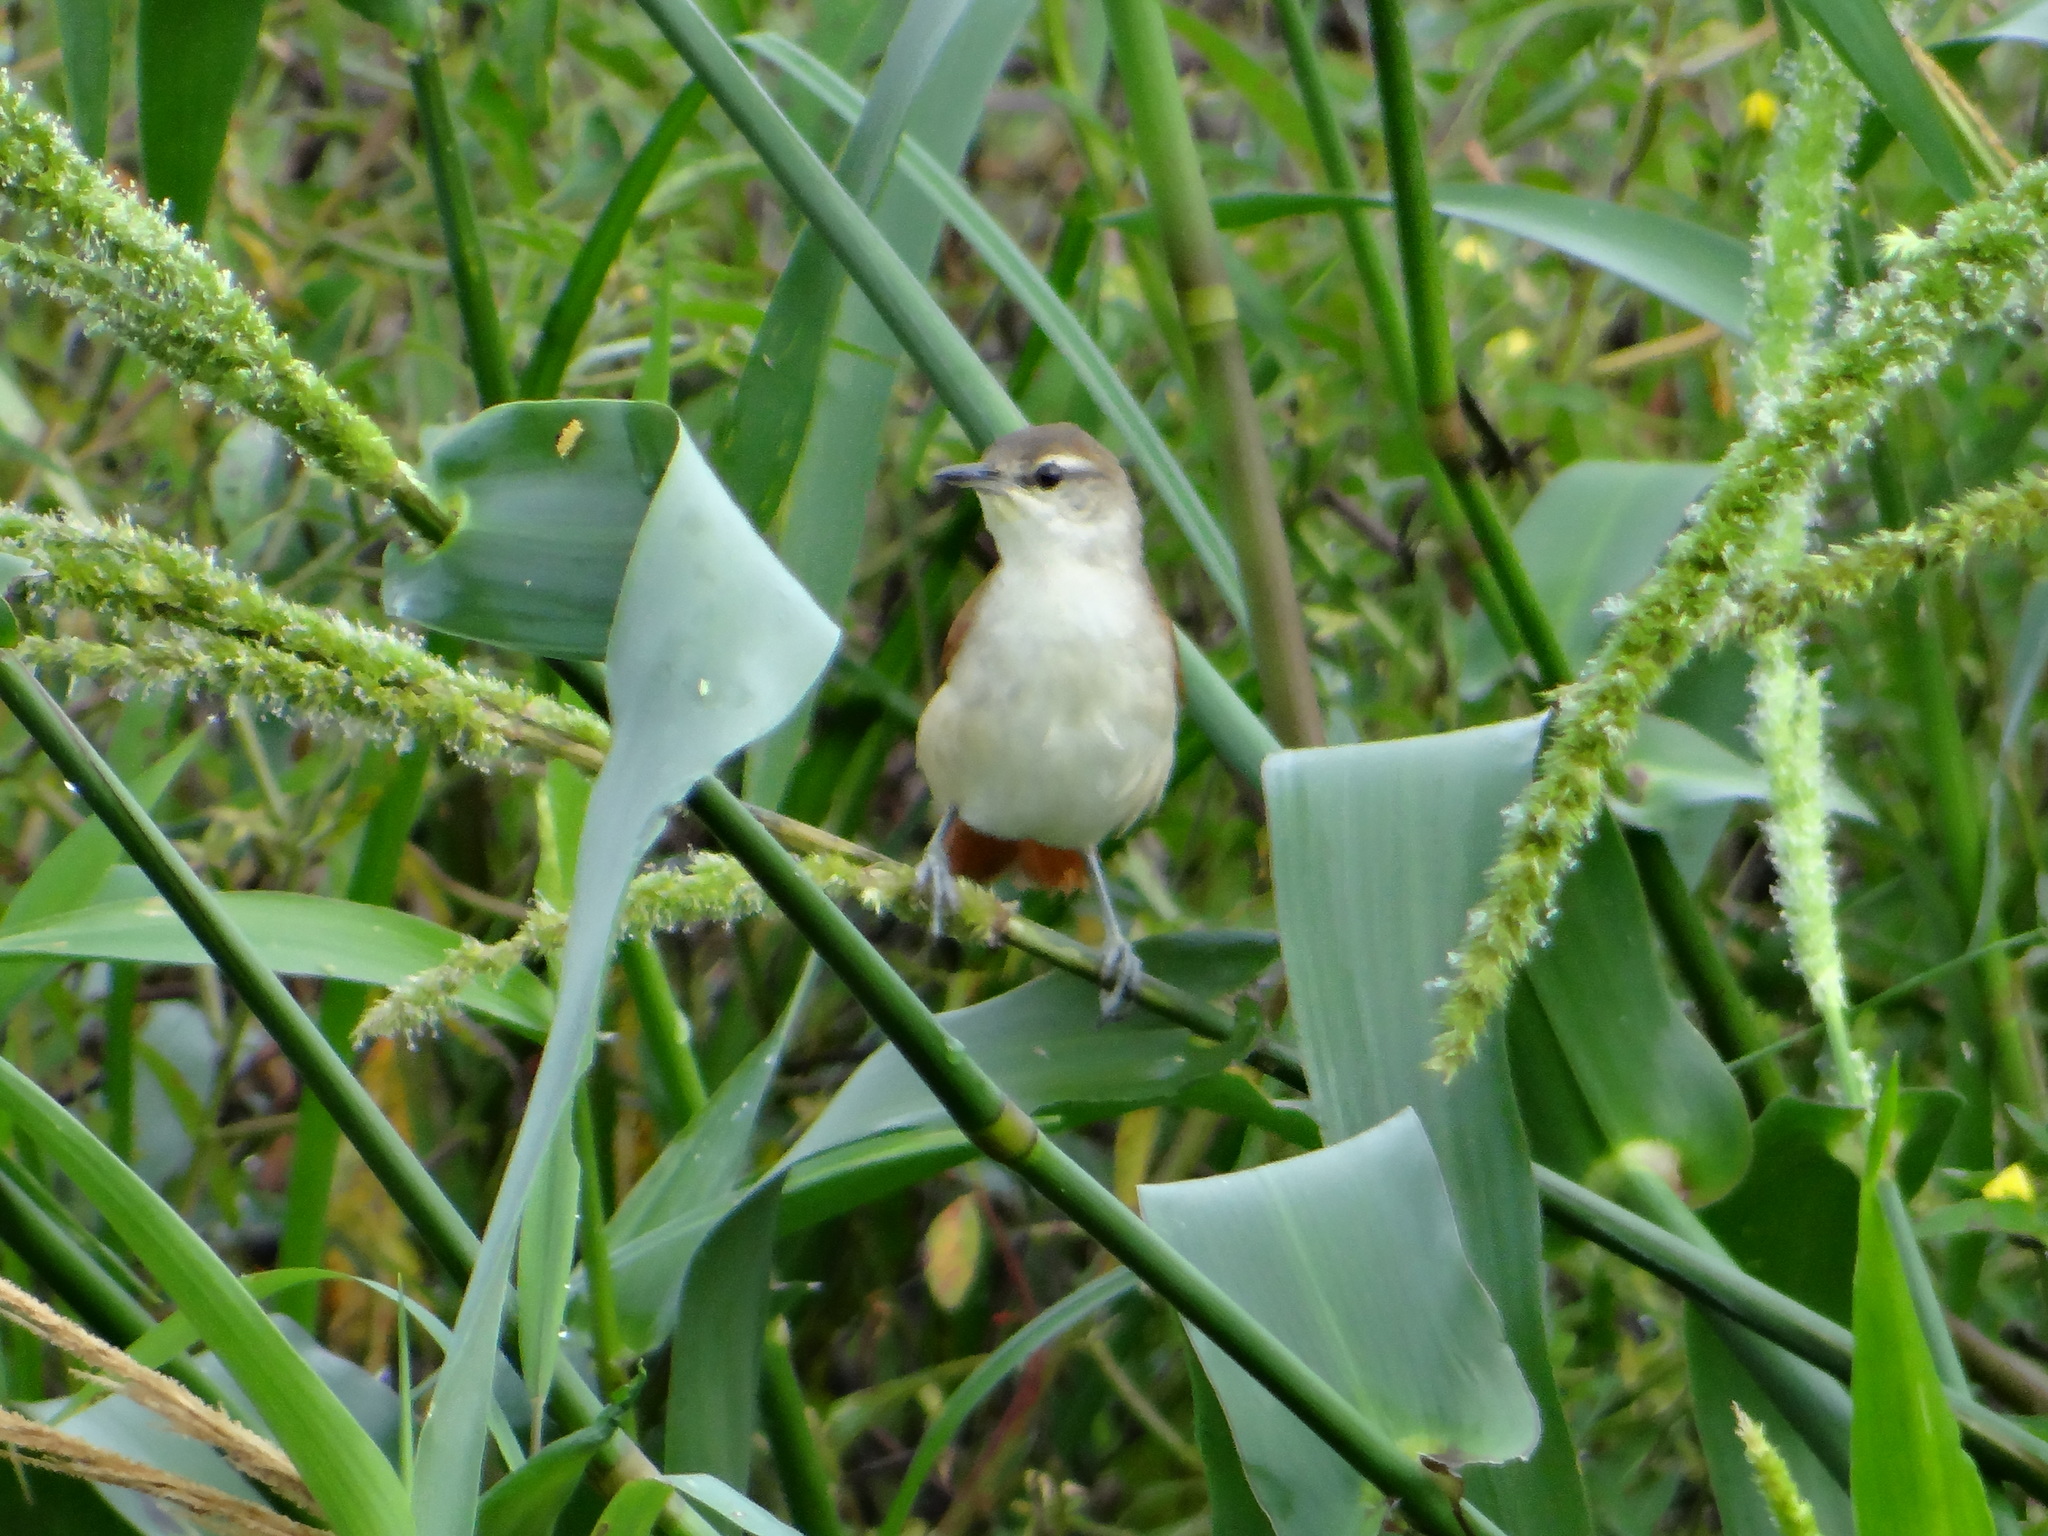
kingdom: Animalia
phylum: Chordata
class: Aves
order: Passeriformes
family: Furnariidae
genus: Certhiaxis
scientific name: Certhiaxis cinnamomeus
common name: Yellow-chinned spinetail
